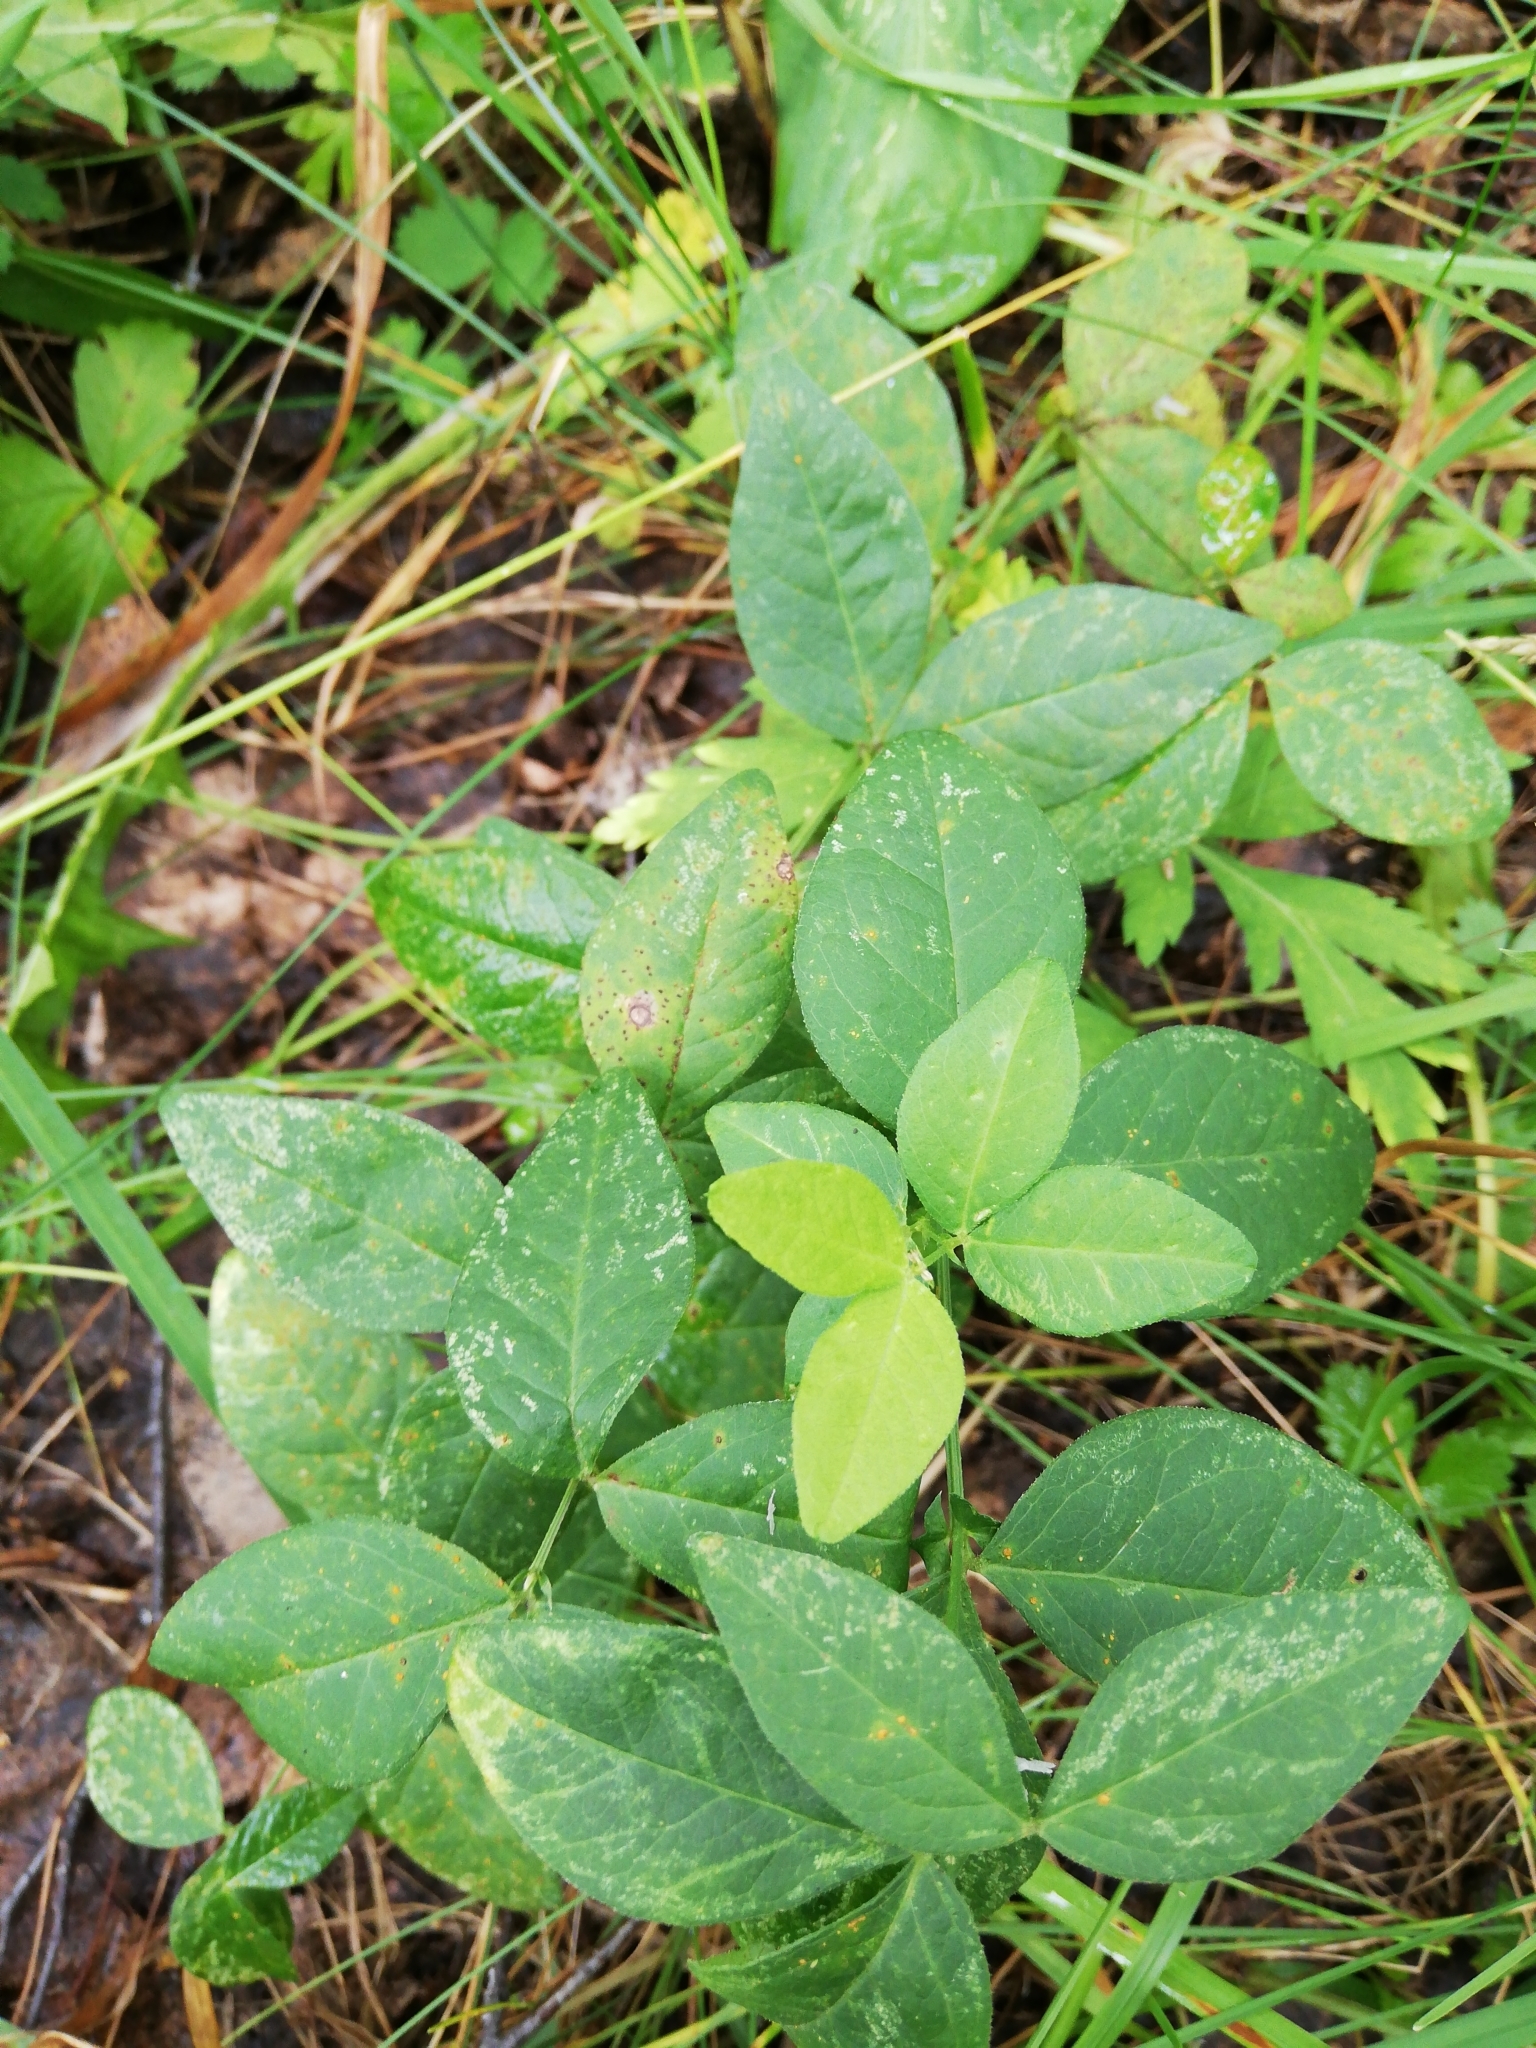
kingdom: Plantae
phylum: Tracheophyta
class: Magnoliopsida
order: Fabales
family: Fabaceae
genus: Vicia
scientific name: Vicia unijuga
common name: Two-leaf vetch
